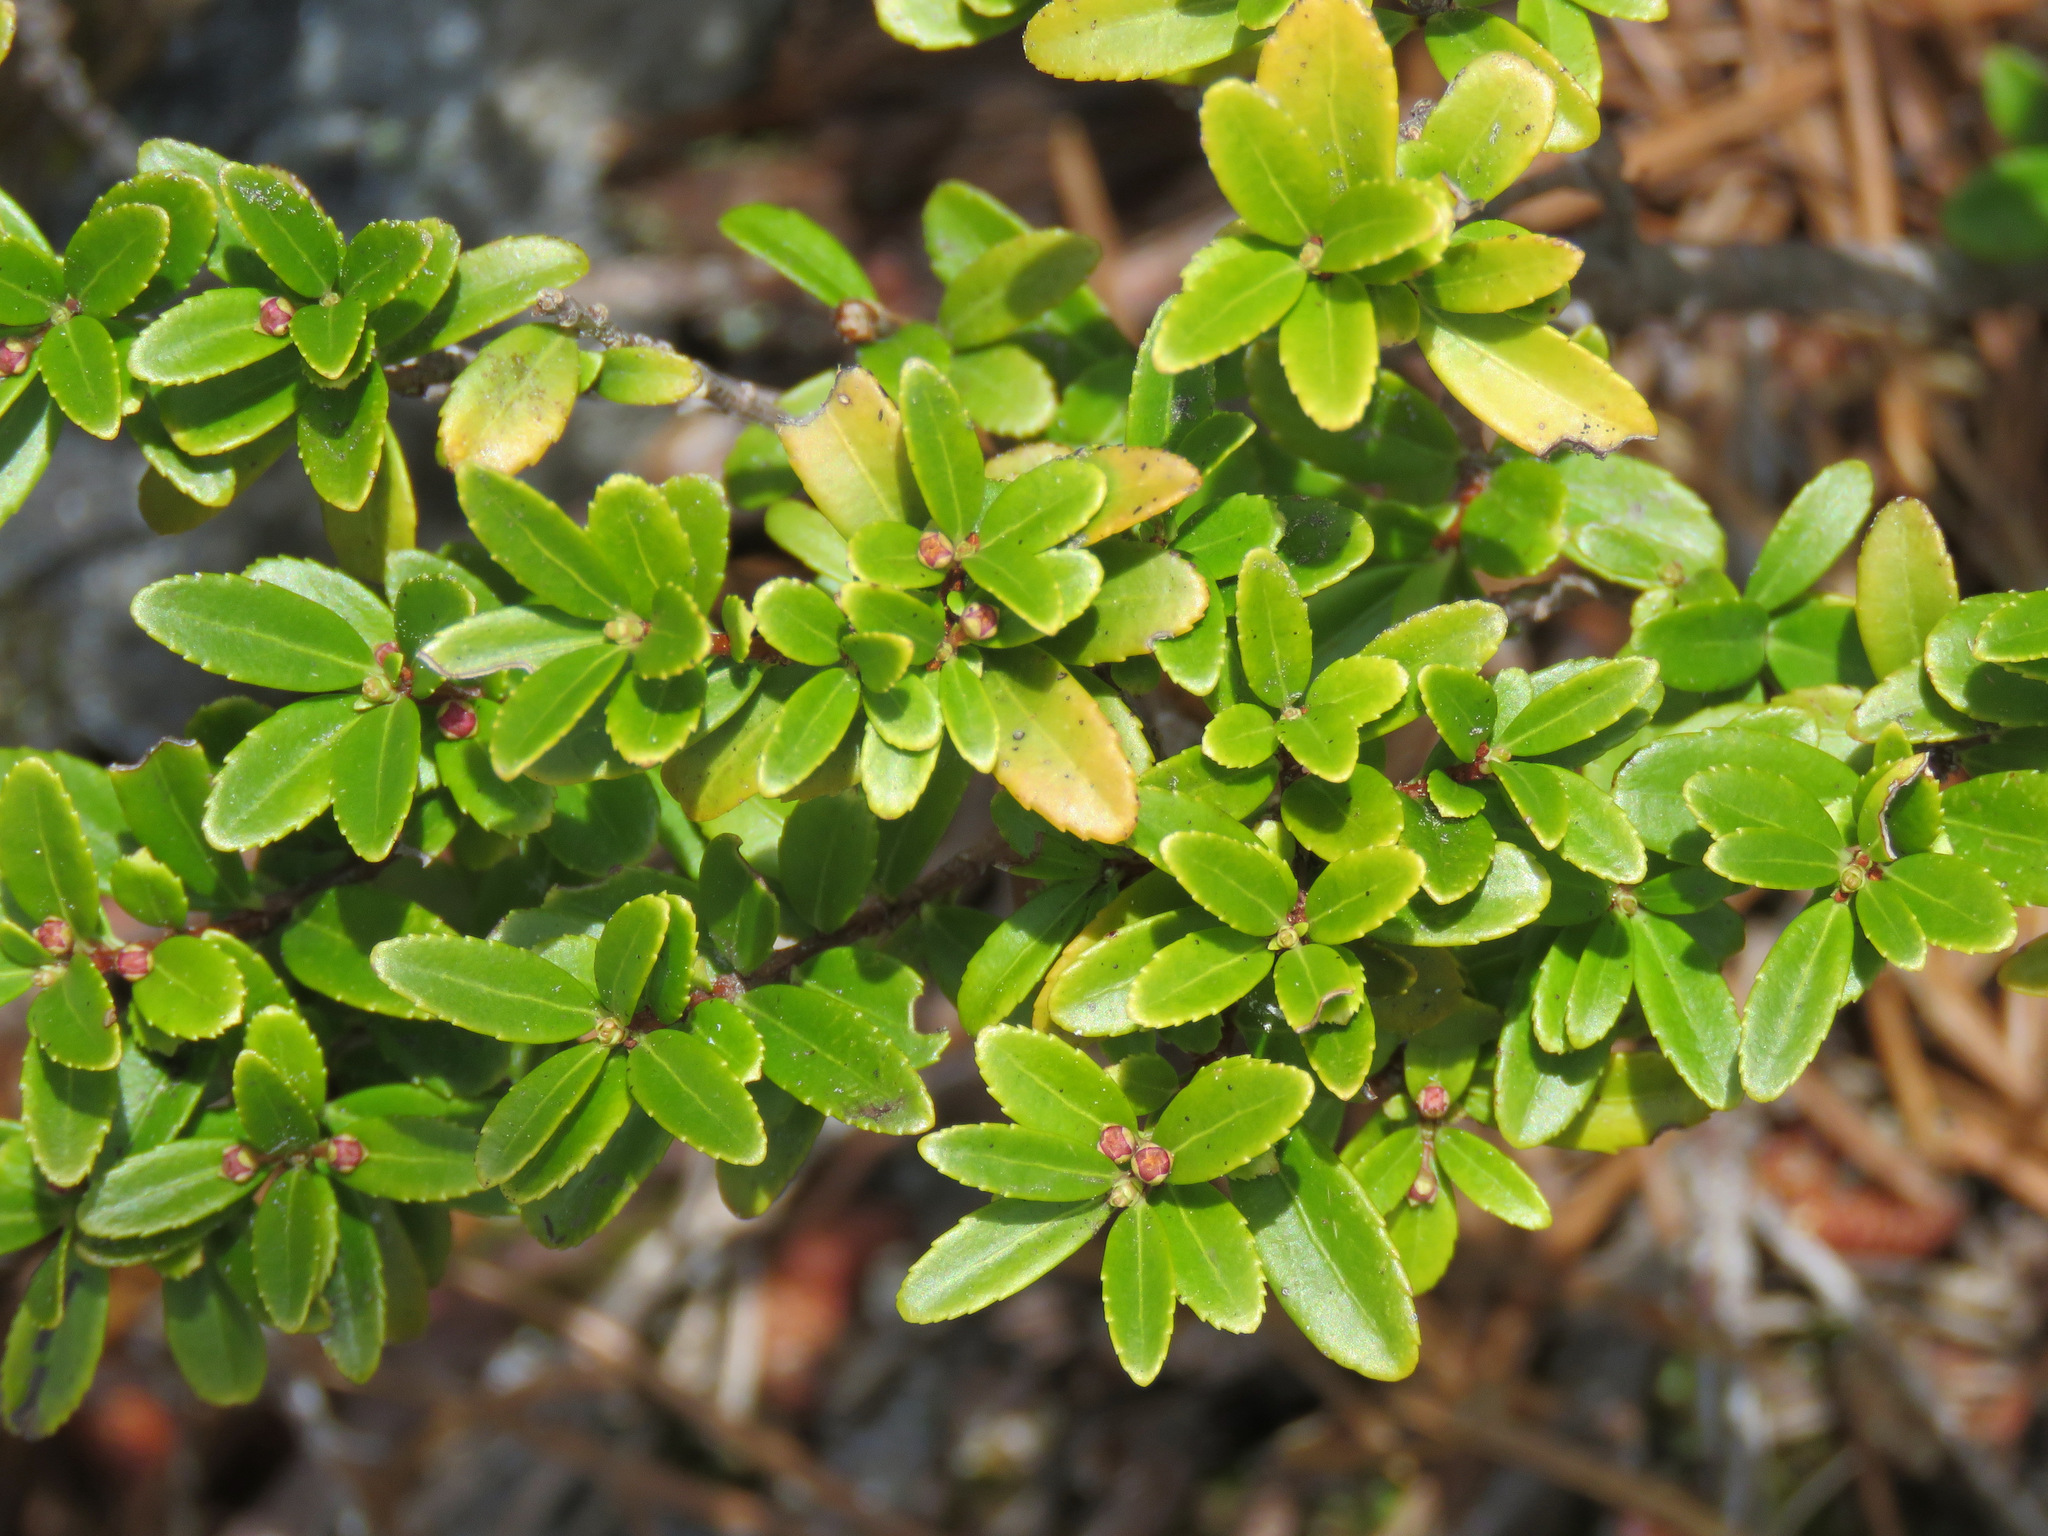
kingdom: Plantae
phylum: Tracheophyta
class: Magnoliopsida
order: Celastrales
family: Celastraceae
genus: Paxistima
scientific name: Paxistima myrsinites
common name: Mountain-lover
